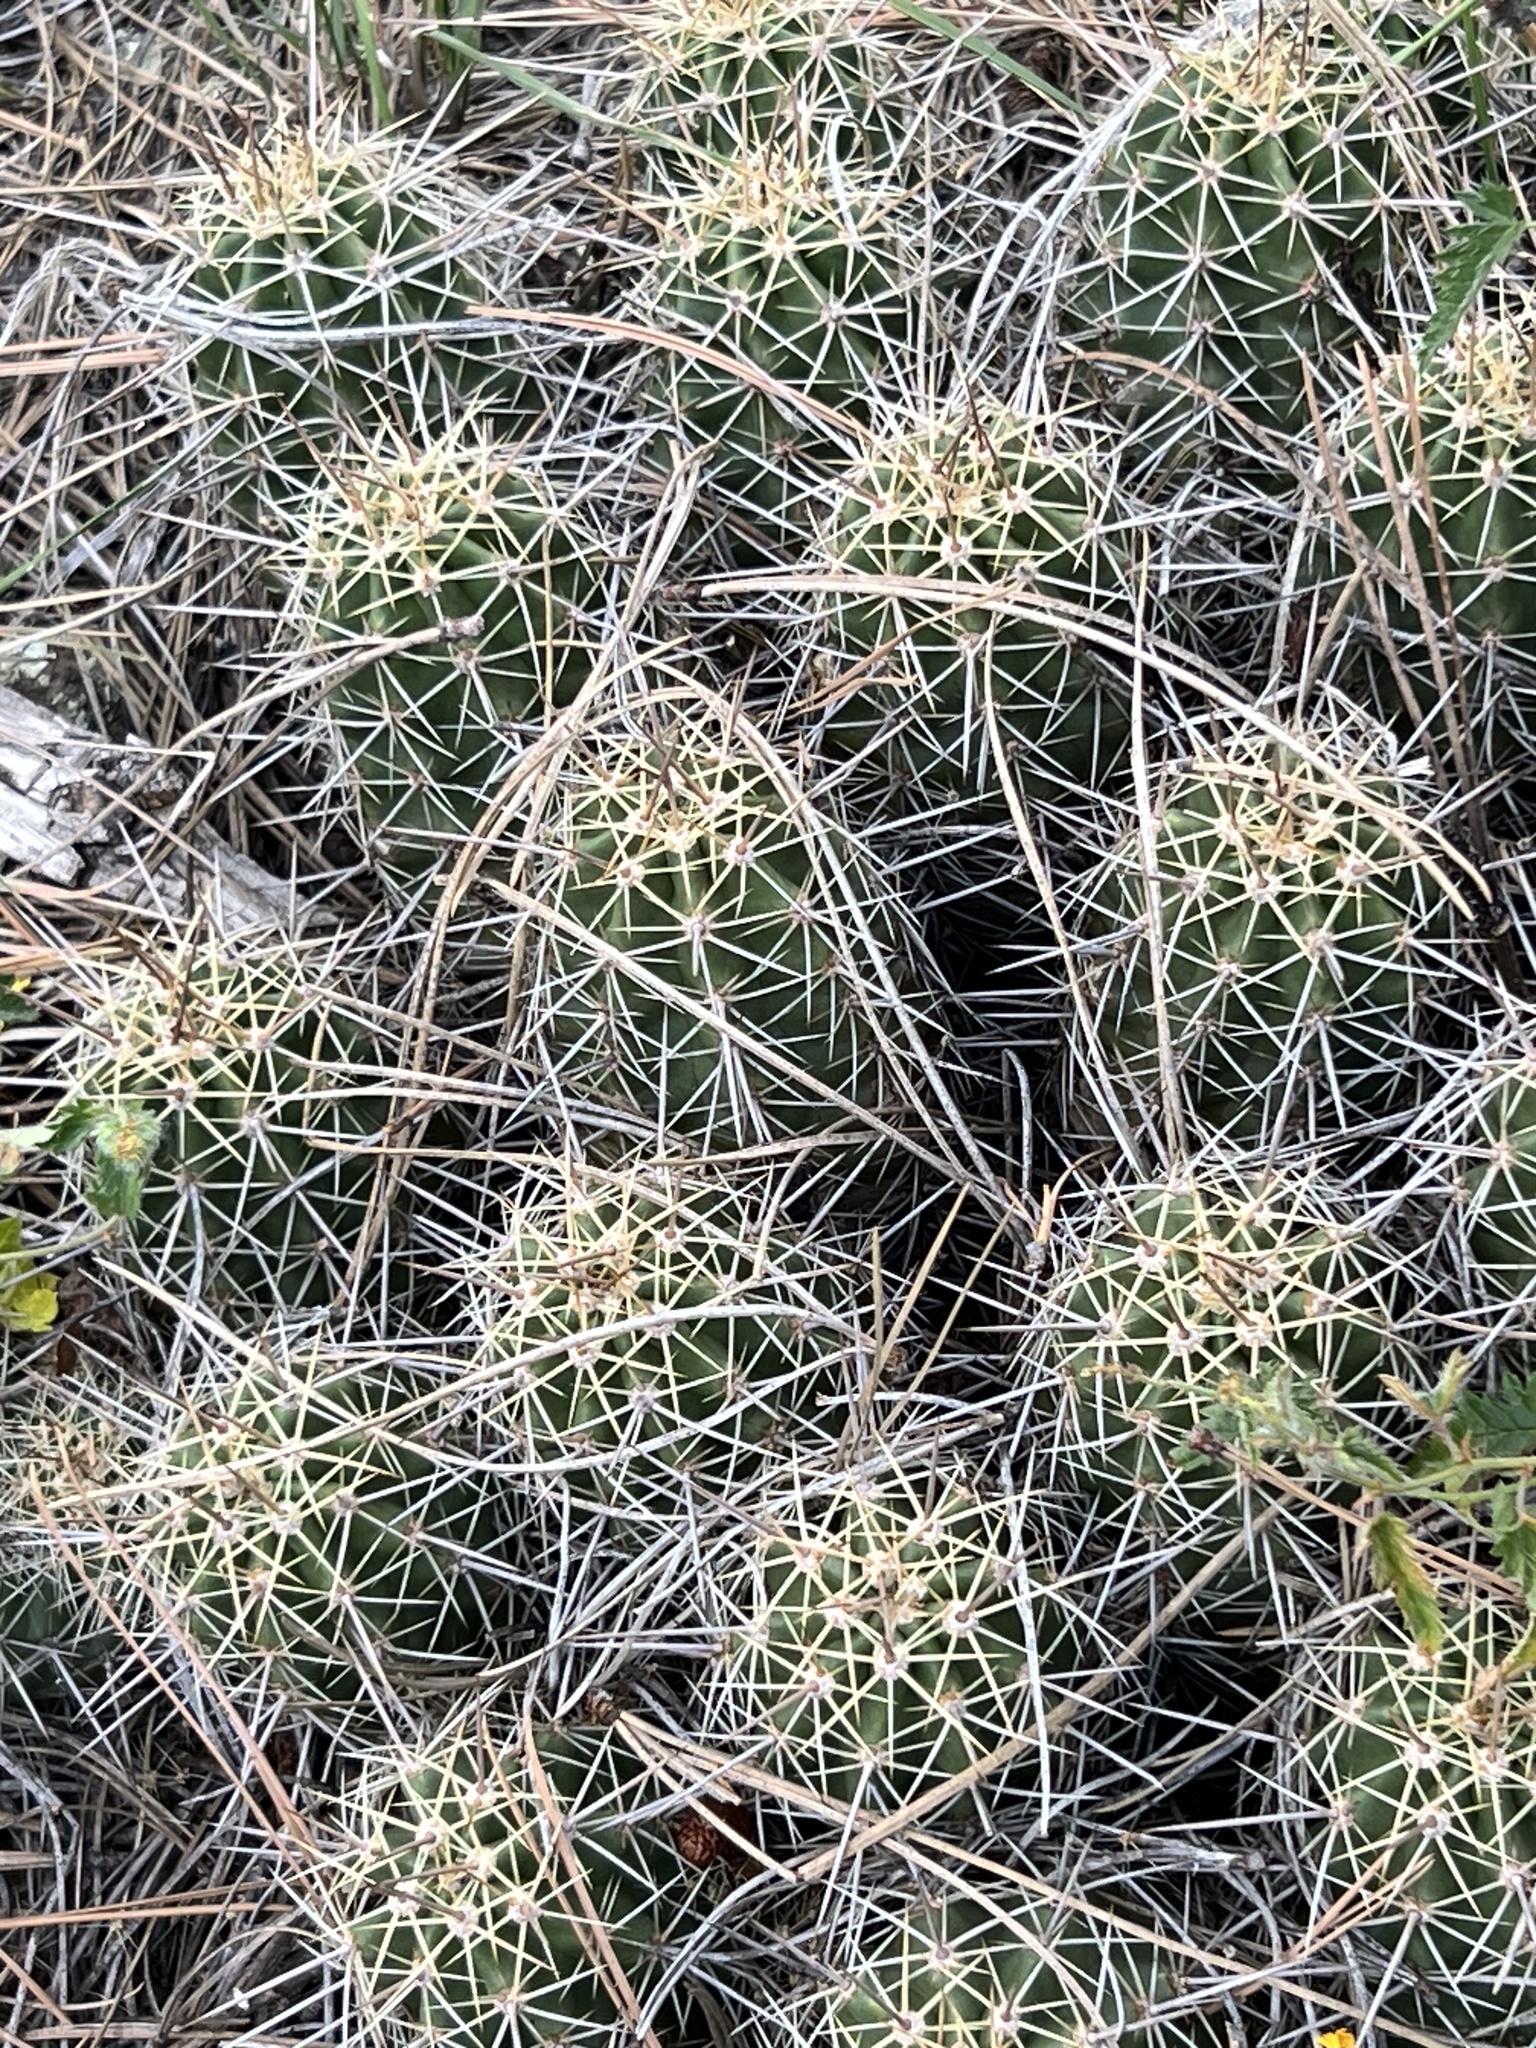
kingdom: Plantae
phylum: Tracheophyta
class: Magnoliopsida
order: Caryophyllales
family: Cactaceae
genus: Echinocereus
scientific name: Echinocereus bakeri
